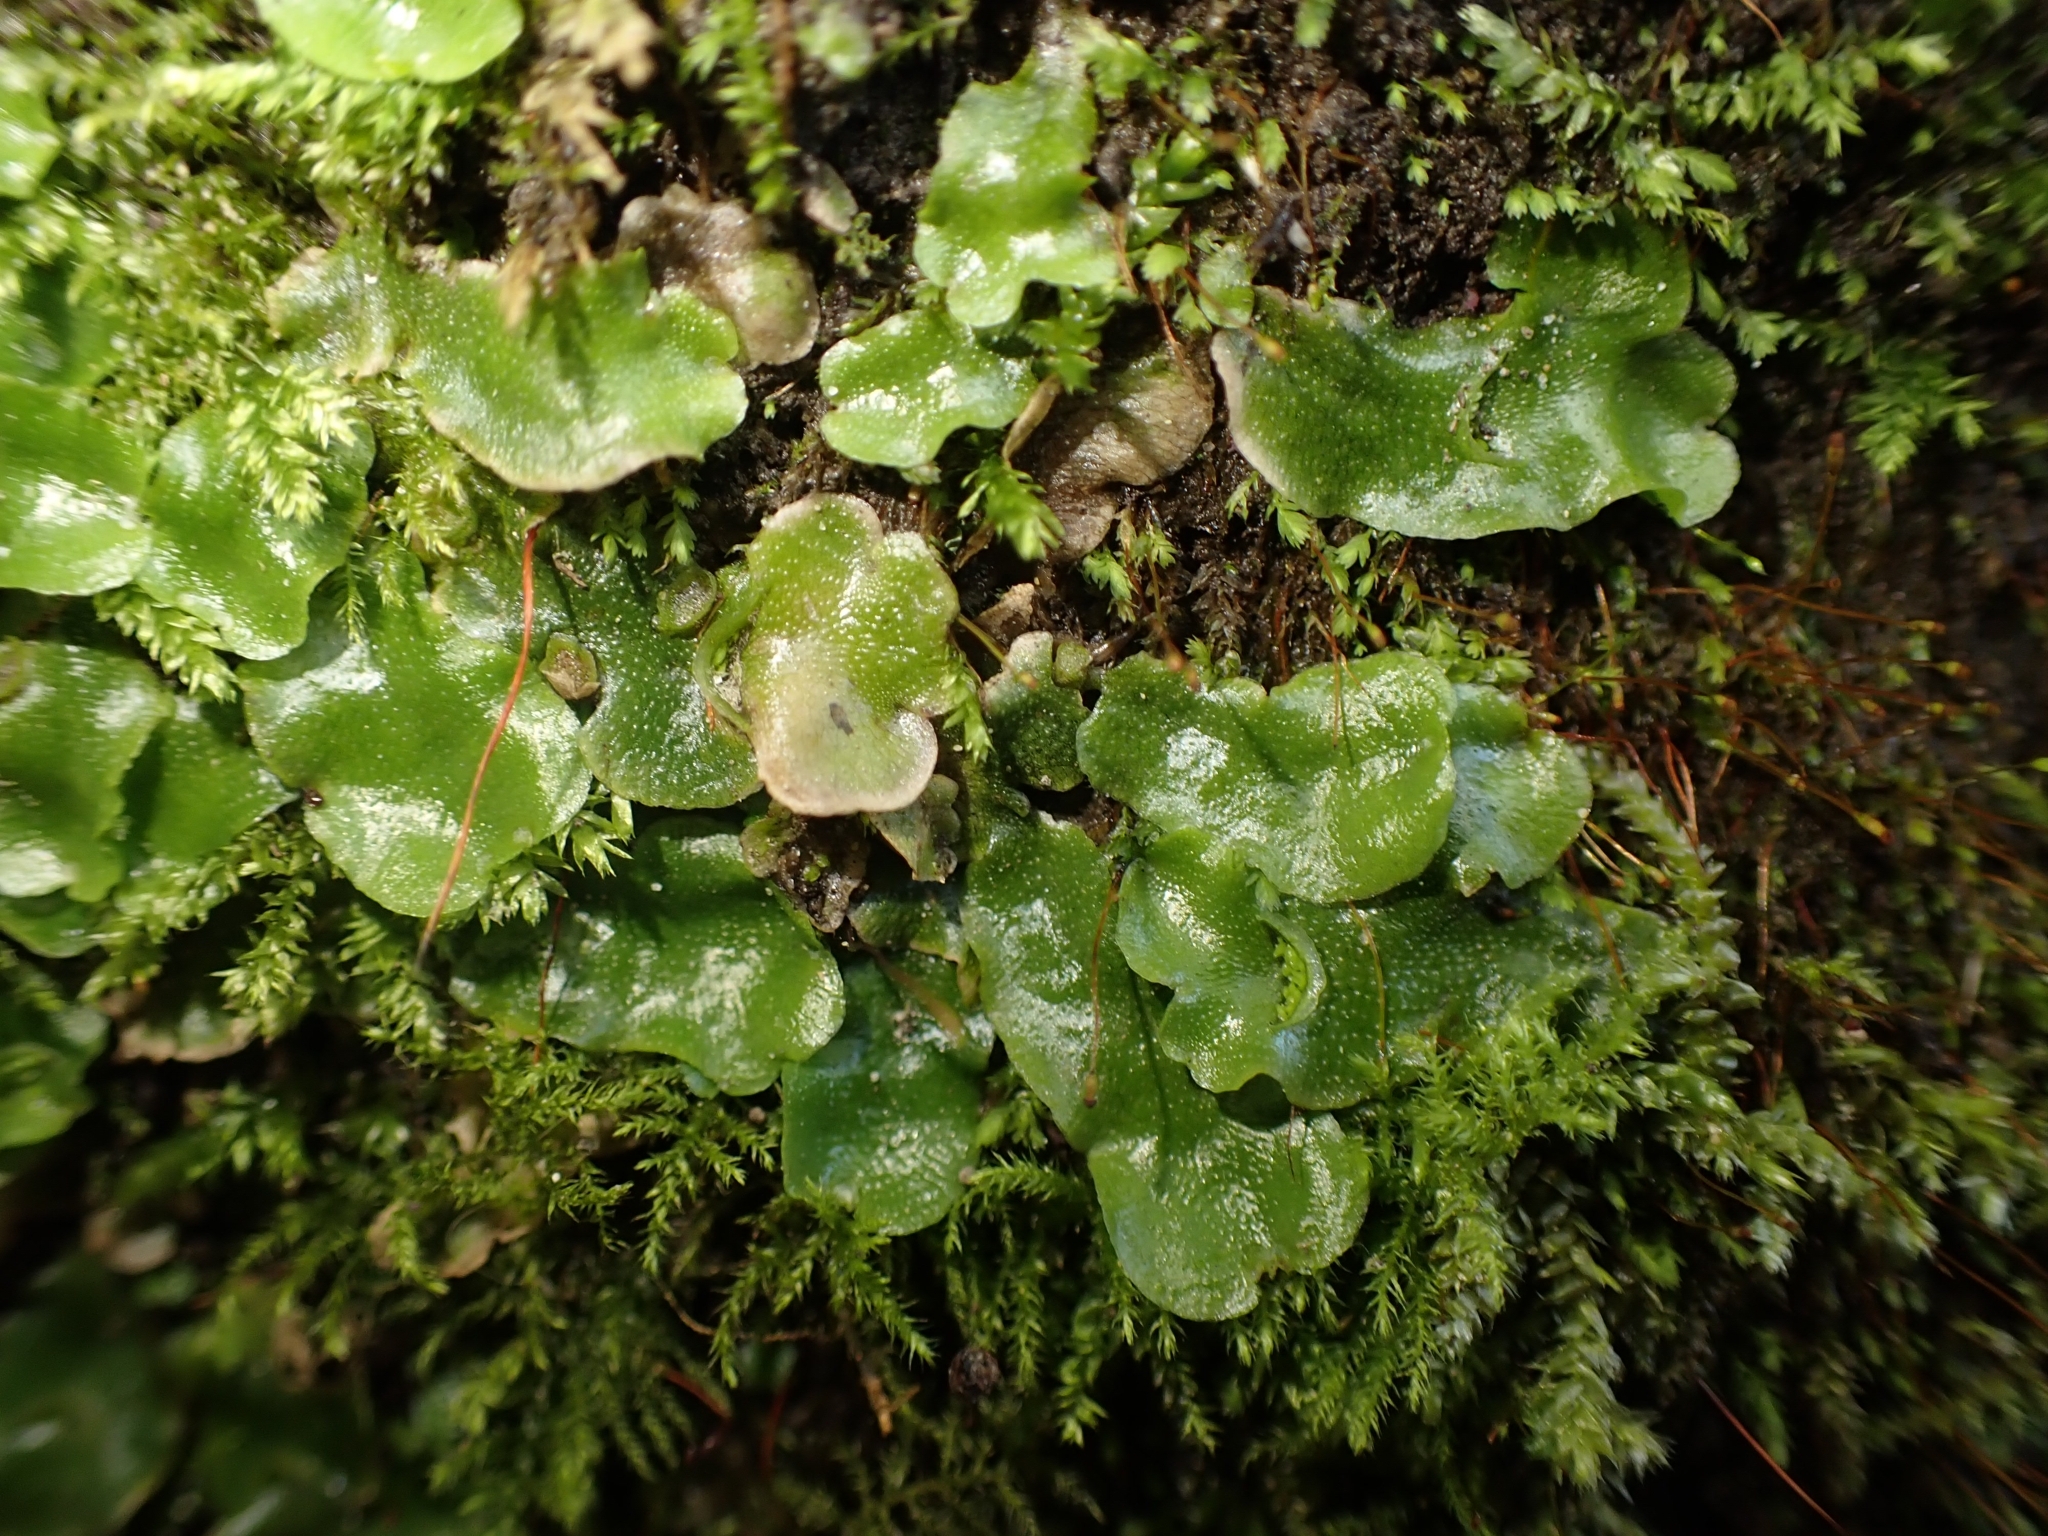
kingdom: Plantae
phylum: Marchantiophyta
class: Marchantiopsida
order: Lunulariales
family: Lunulariaceae
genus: Lunularia
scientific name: Lunularia cruciata
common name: Crescent-cup liverwort
